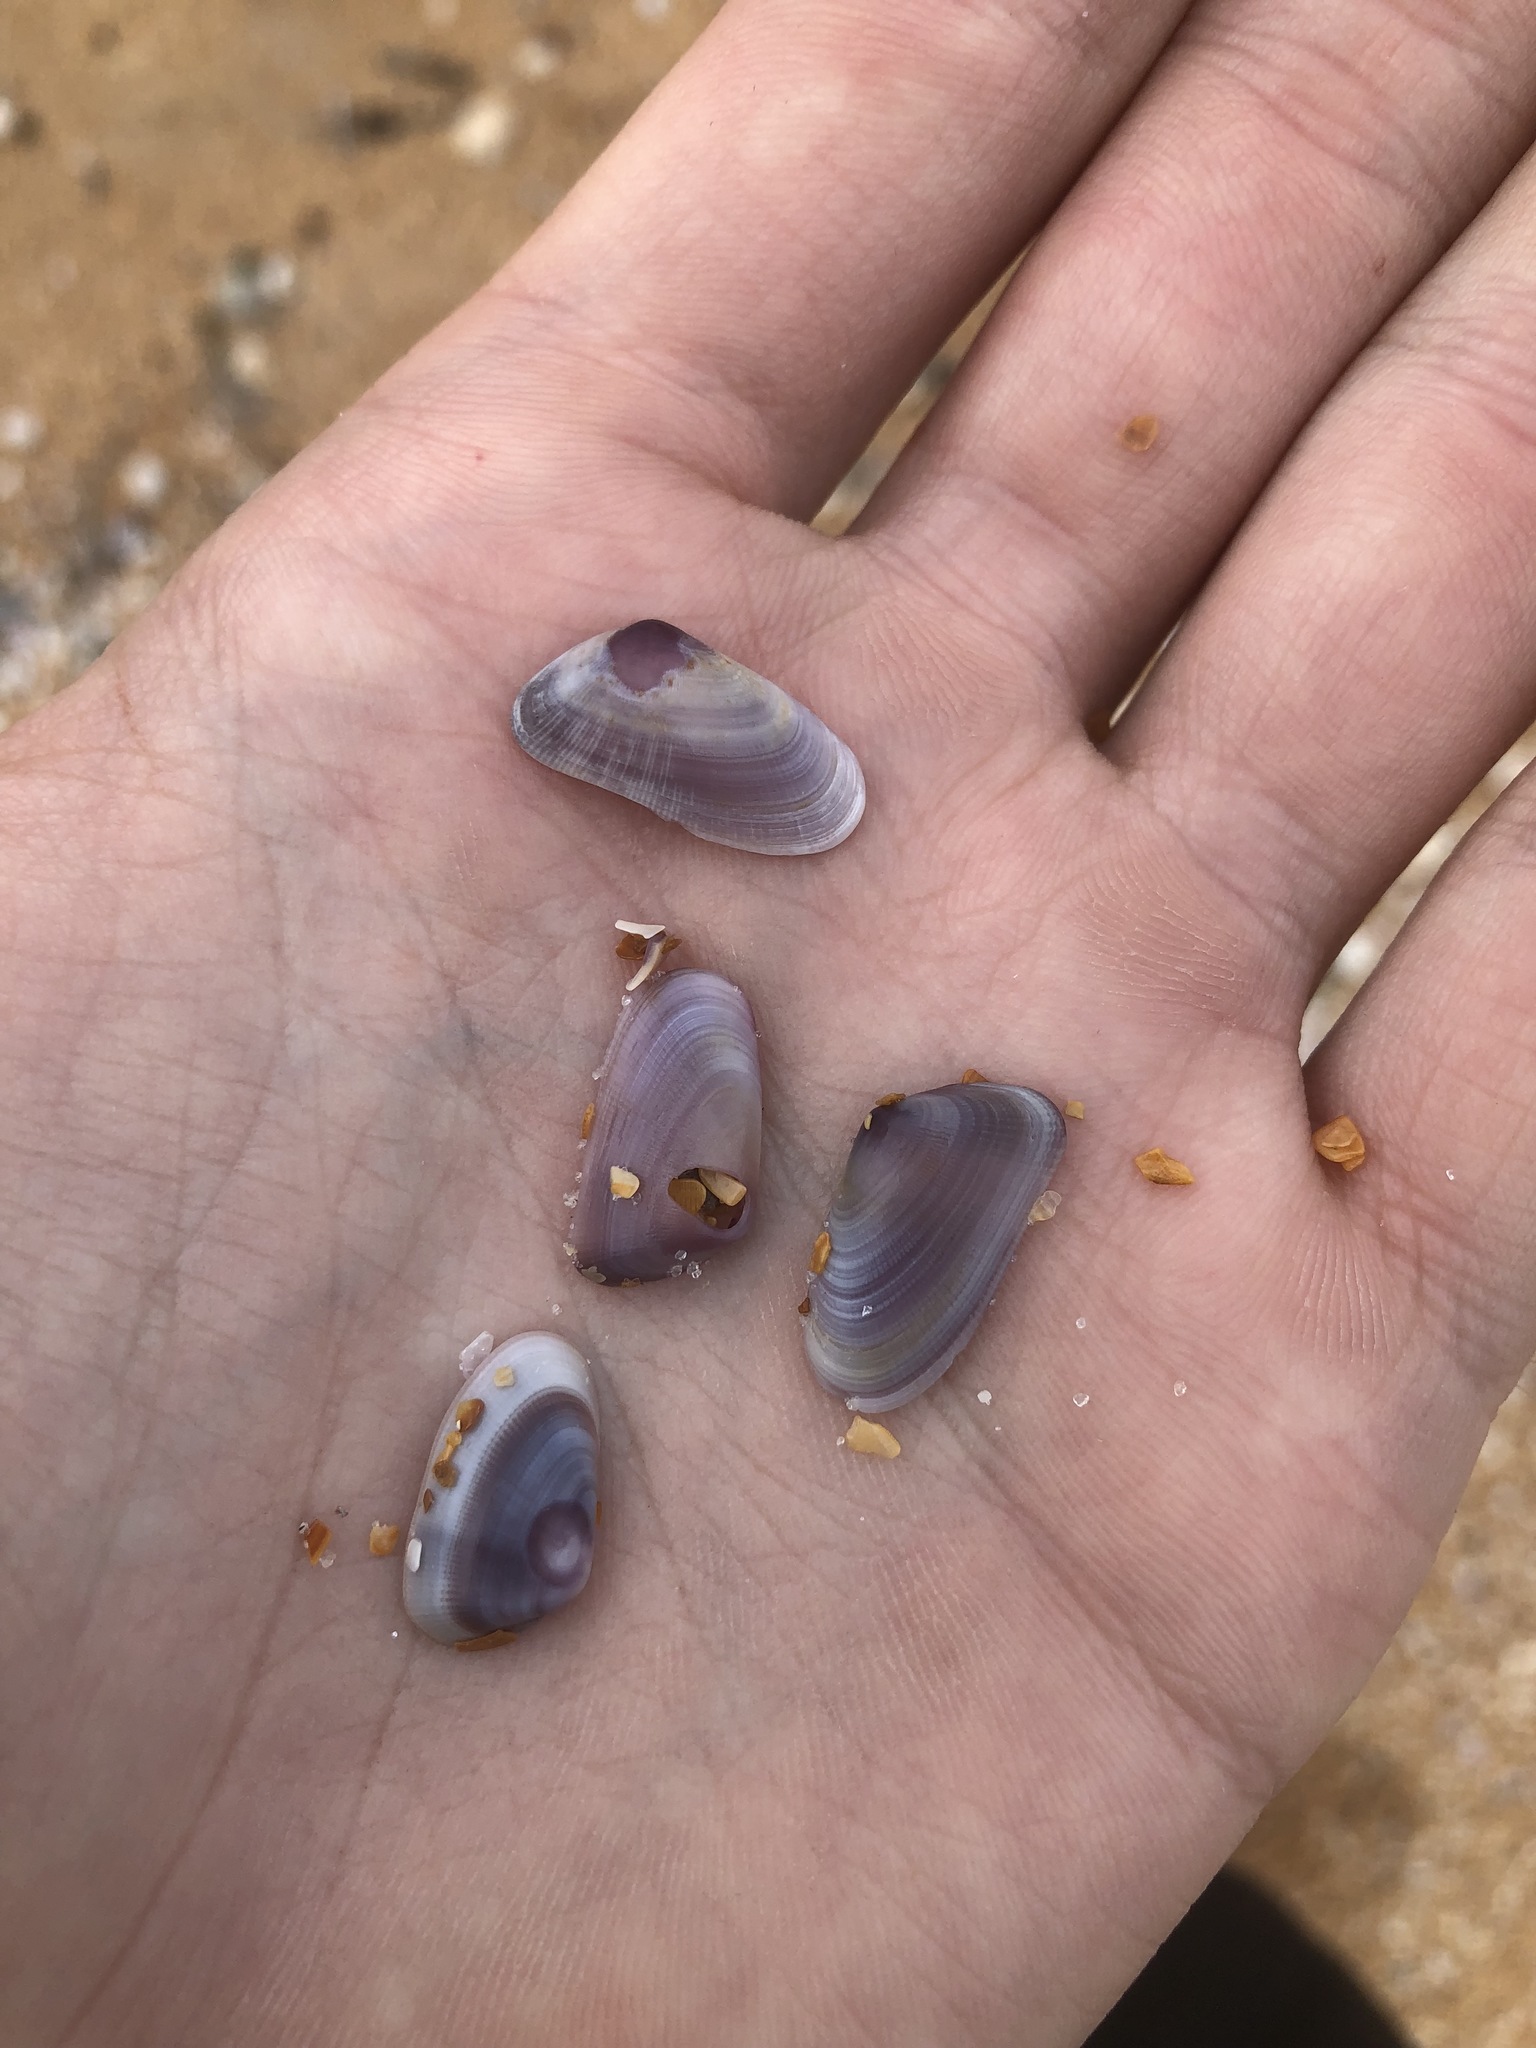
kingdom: Animalia
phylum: Mollusca
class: Bivalvia
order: Cardiida
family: Donacidae
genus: Donax
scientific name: Donax variabilis
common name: Butterfly shell
